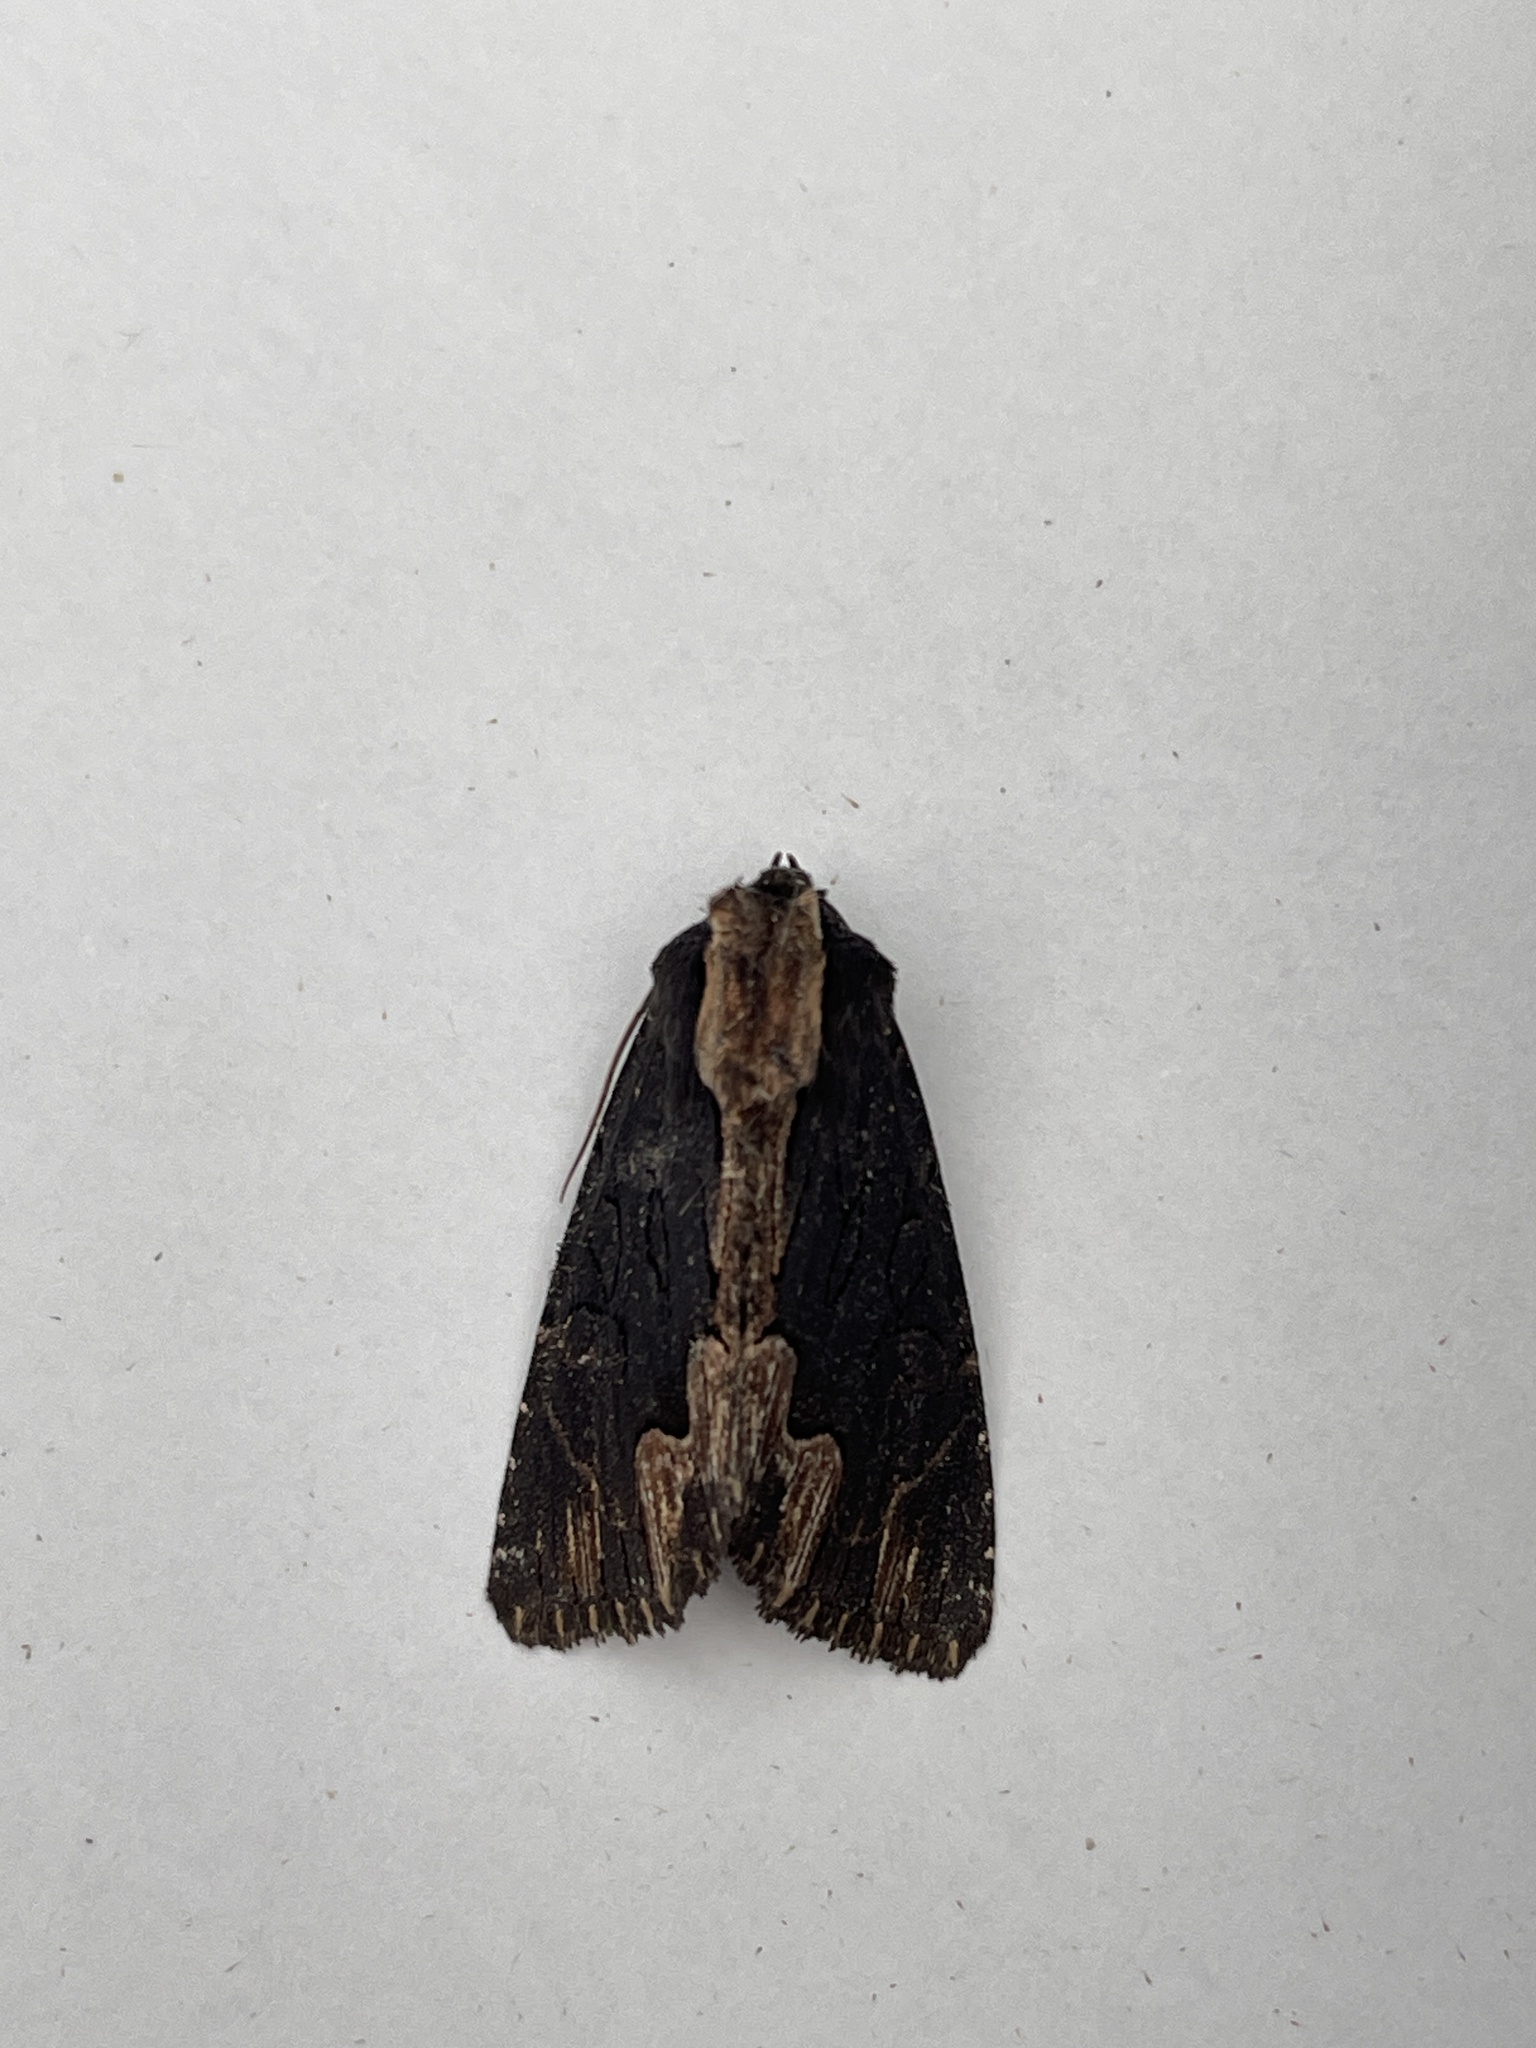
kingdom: Animalia
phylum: Arthropoda
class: Insecta
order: Lepidoptera
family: Noctuidae
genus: Dypterygia
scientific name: Dypterygia scabriuscula
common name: Bird's wing
